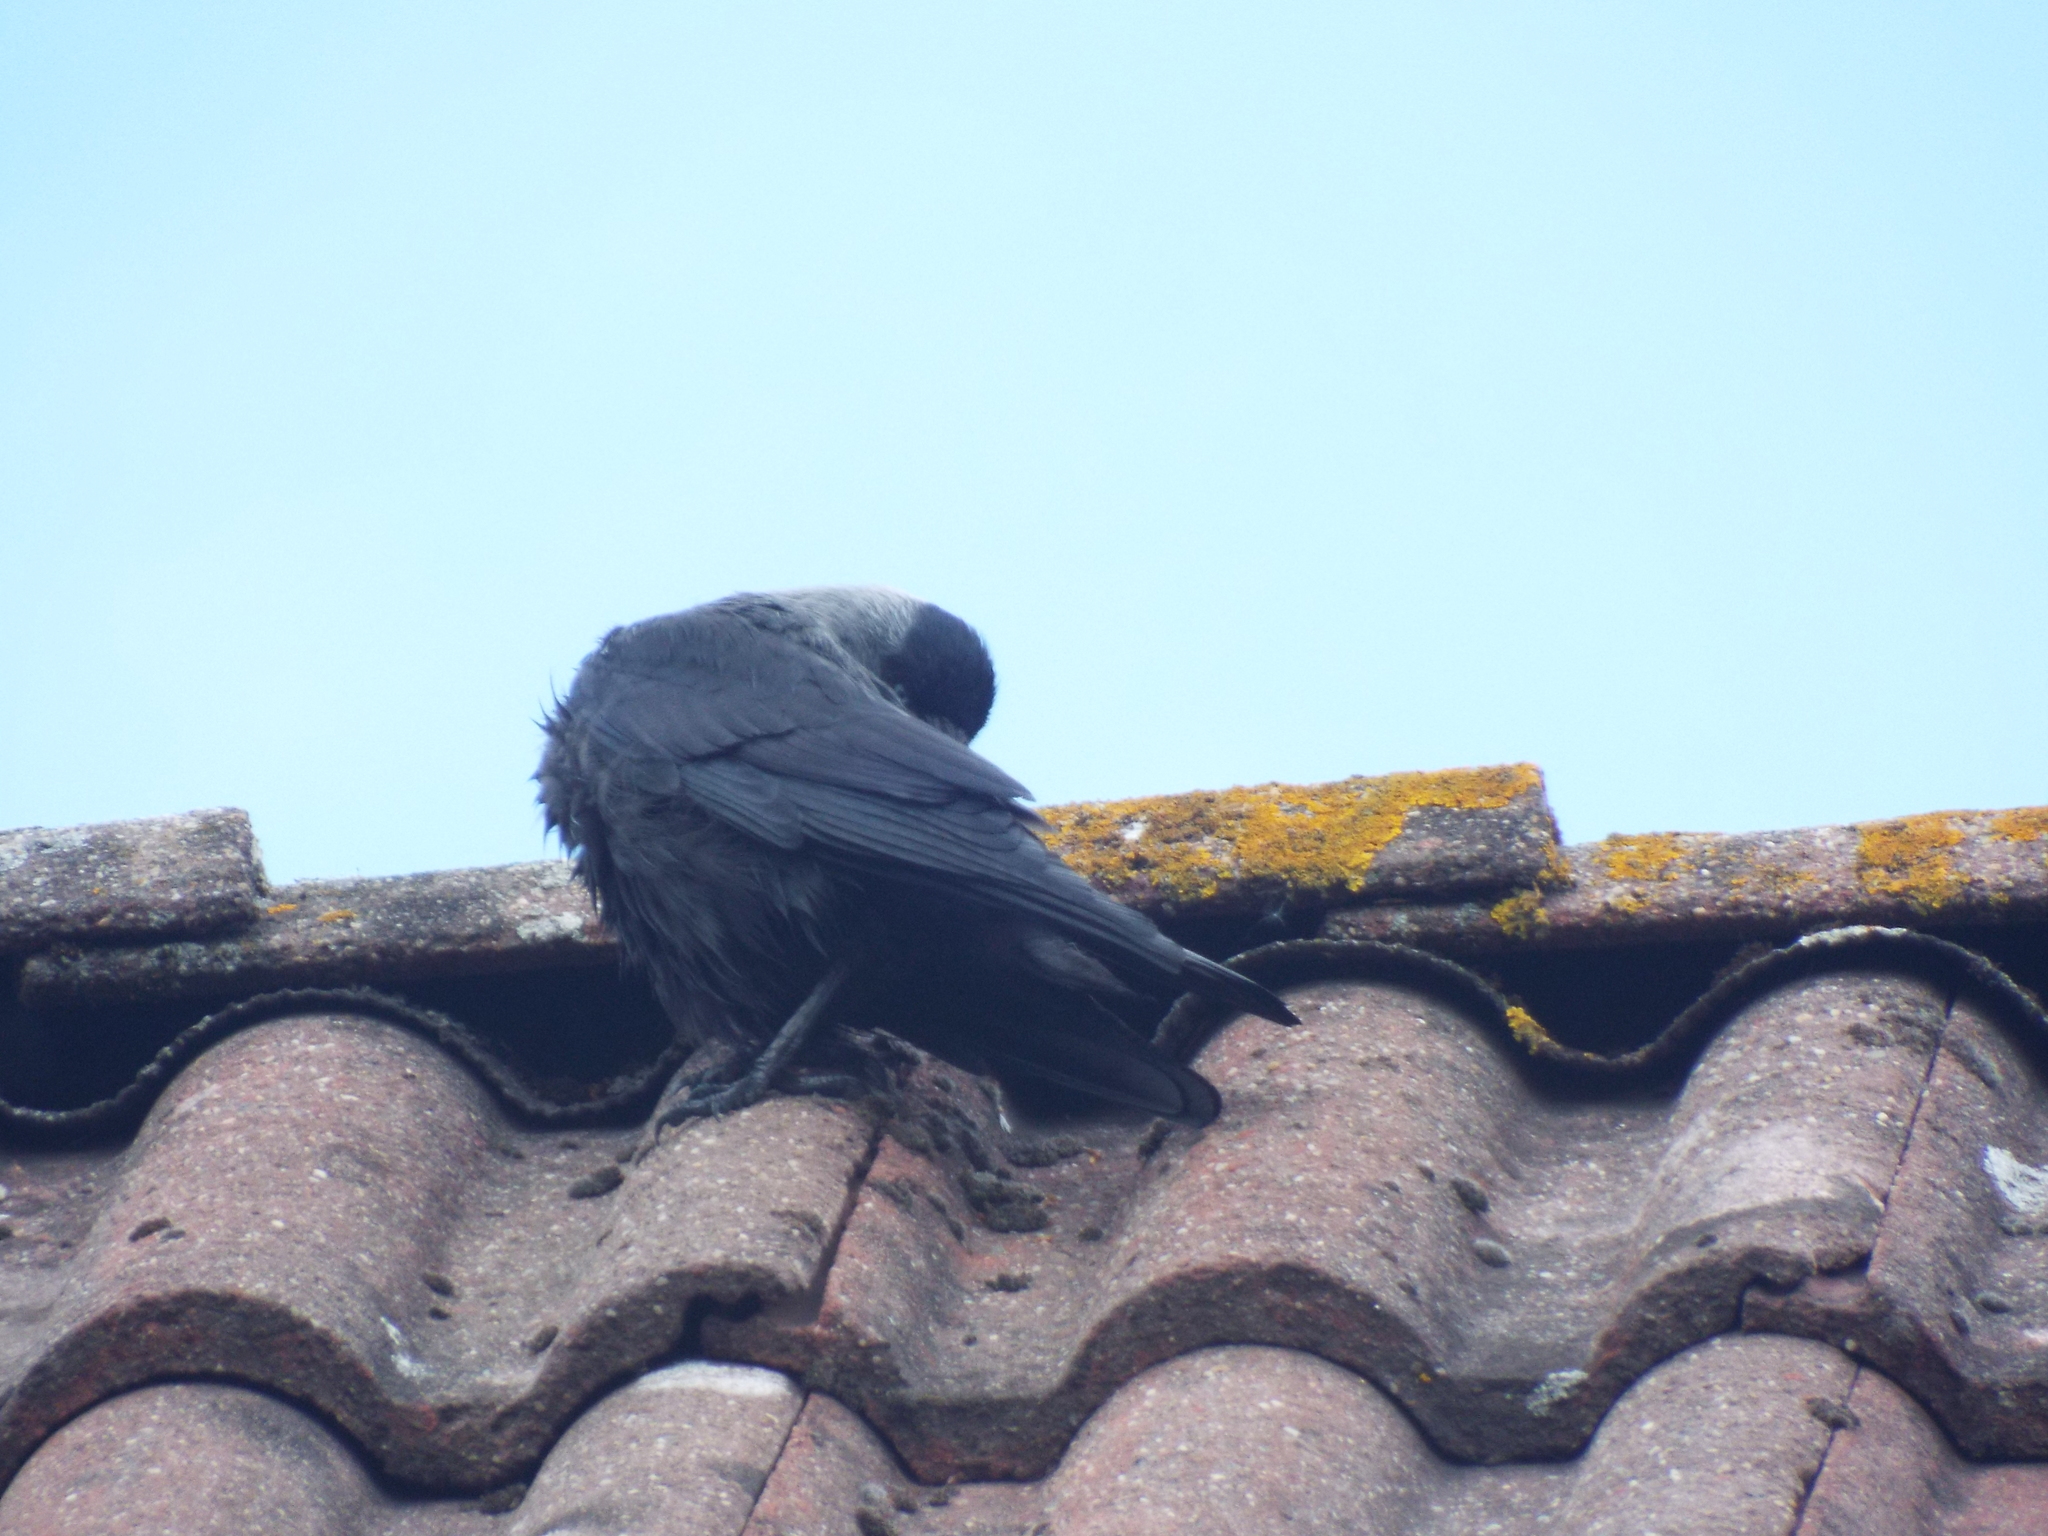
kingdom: Animalia
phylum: Chordata
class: Aves
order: Passeriformes
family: Corvidae
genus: Coloeus
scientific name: Coloeus monedula
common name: Western jackdaw
